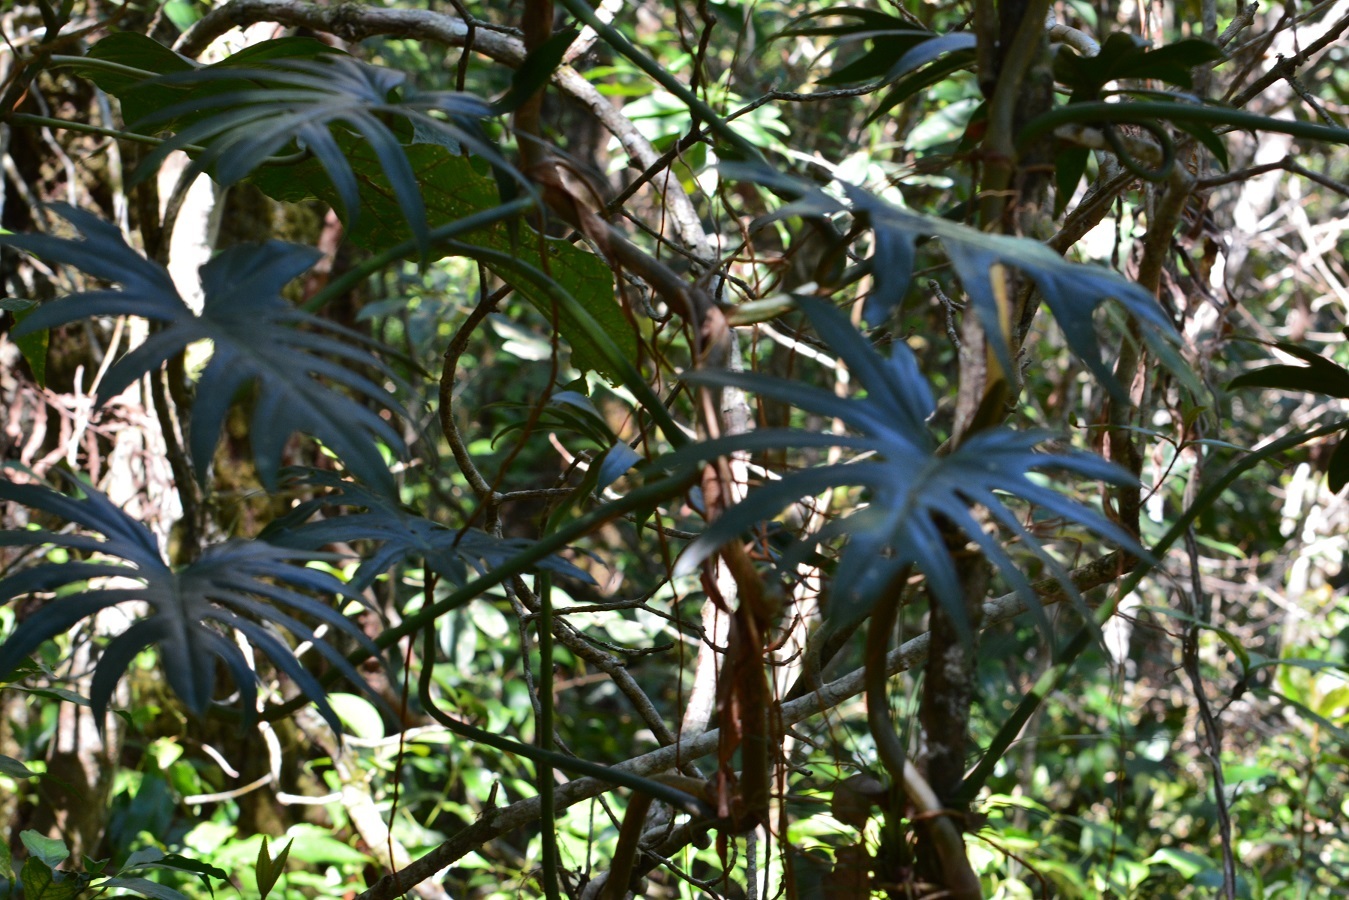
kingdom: Plantae
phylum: Tracheophyta
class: Liliopsida
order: Alismatales
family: Araceae
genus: Philodendron
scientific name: Philodendron radiatum
